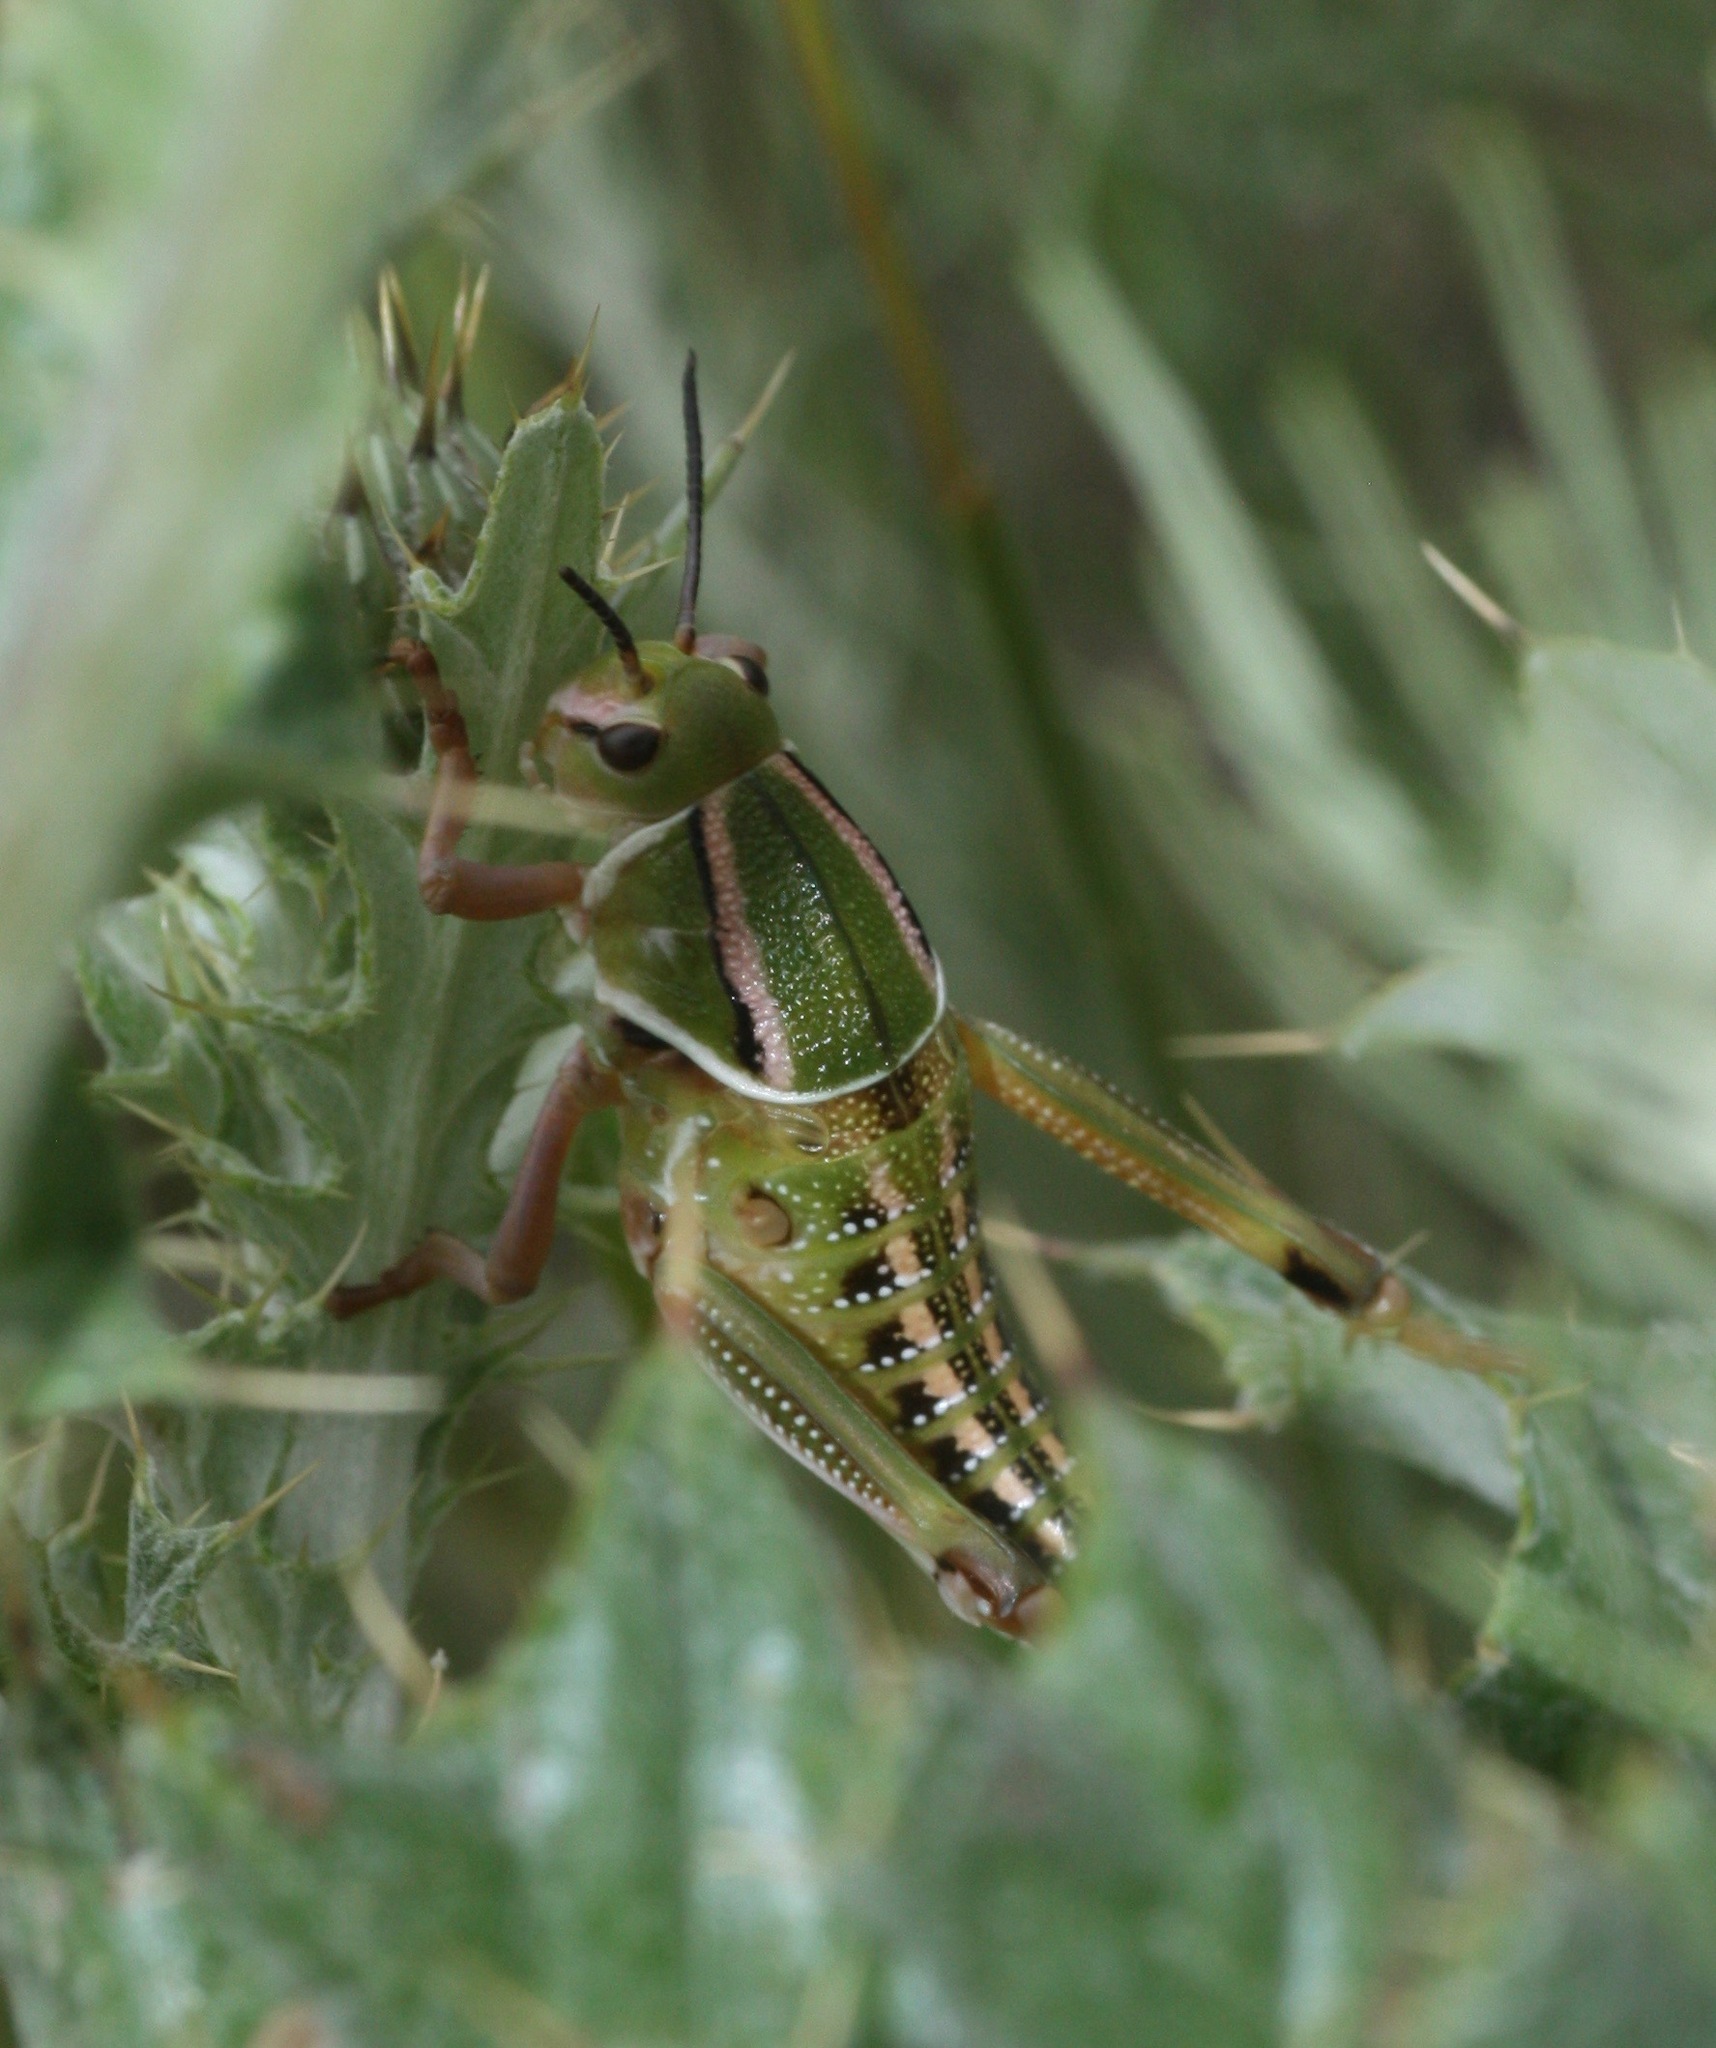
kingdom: Animalia
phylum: Arthropoda
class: Insecta
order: Orthoptera
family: Romaleidae
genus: Brachystola
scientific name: Brachystola magna
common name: Plains lubber grasshopper
